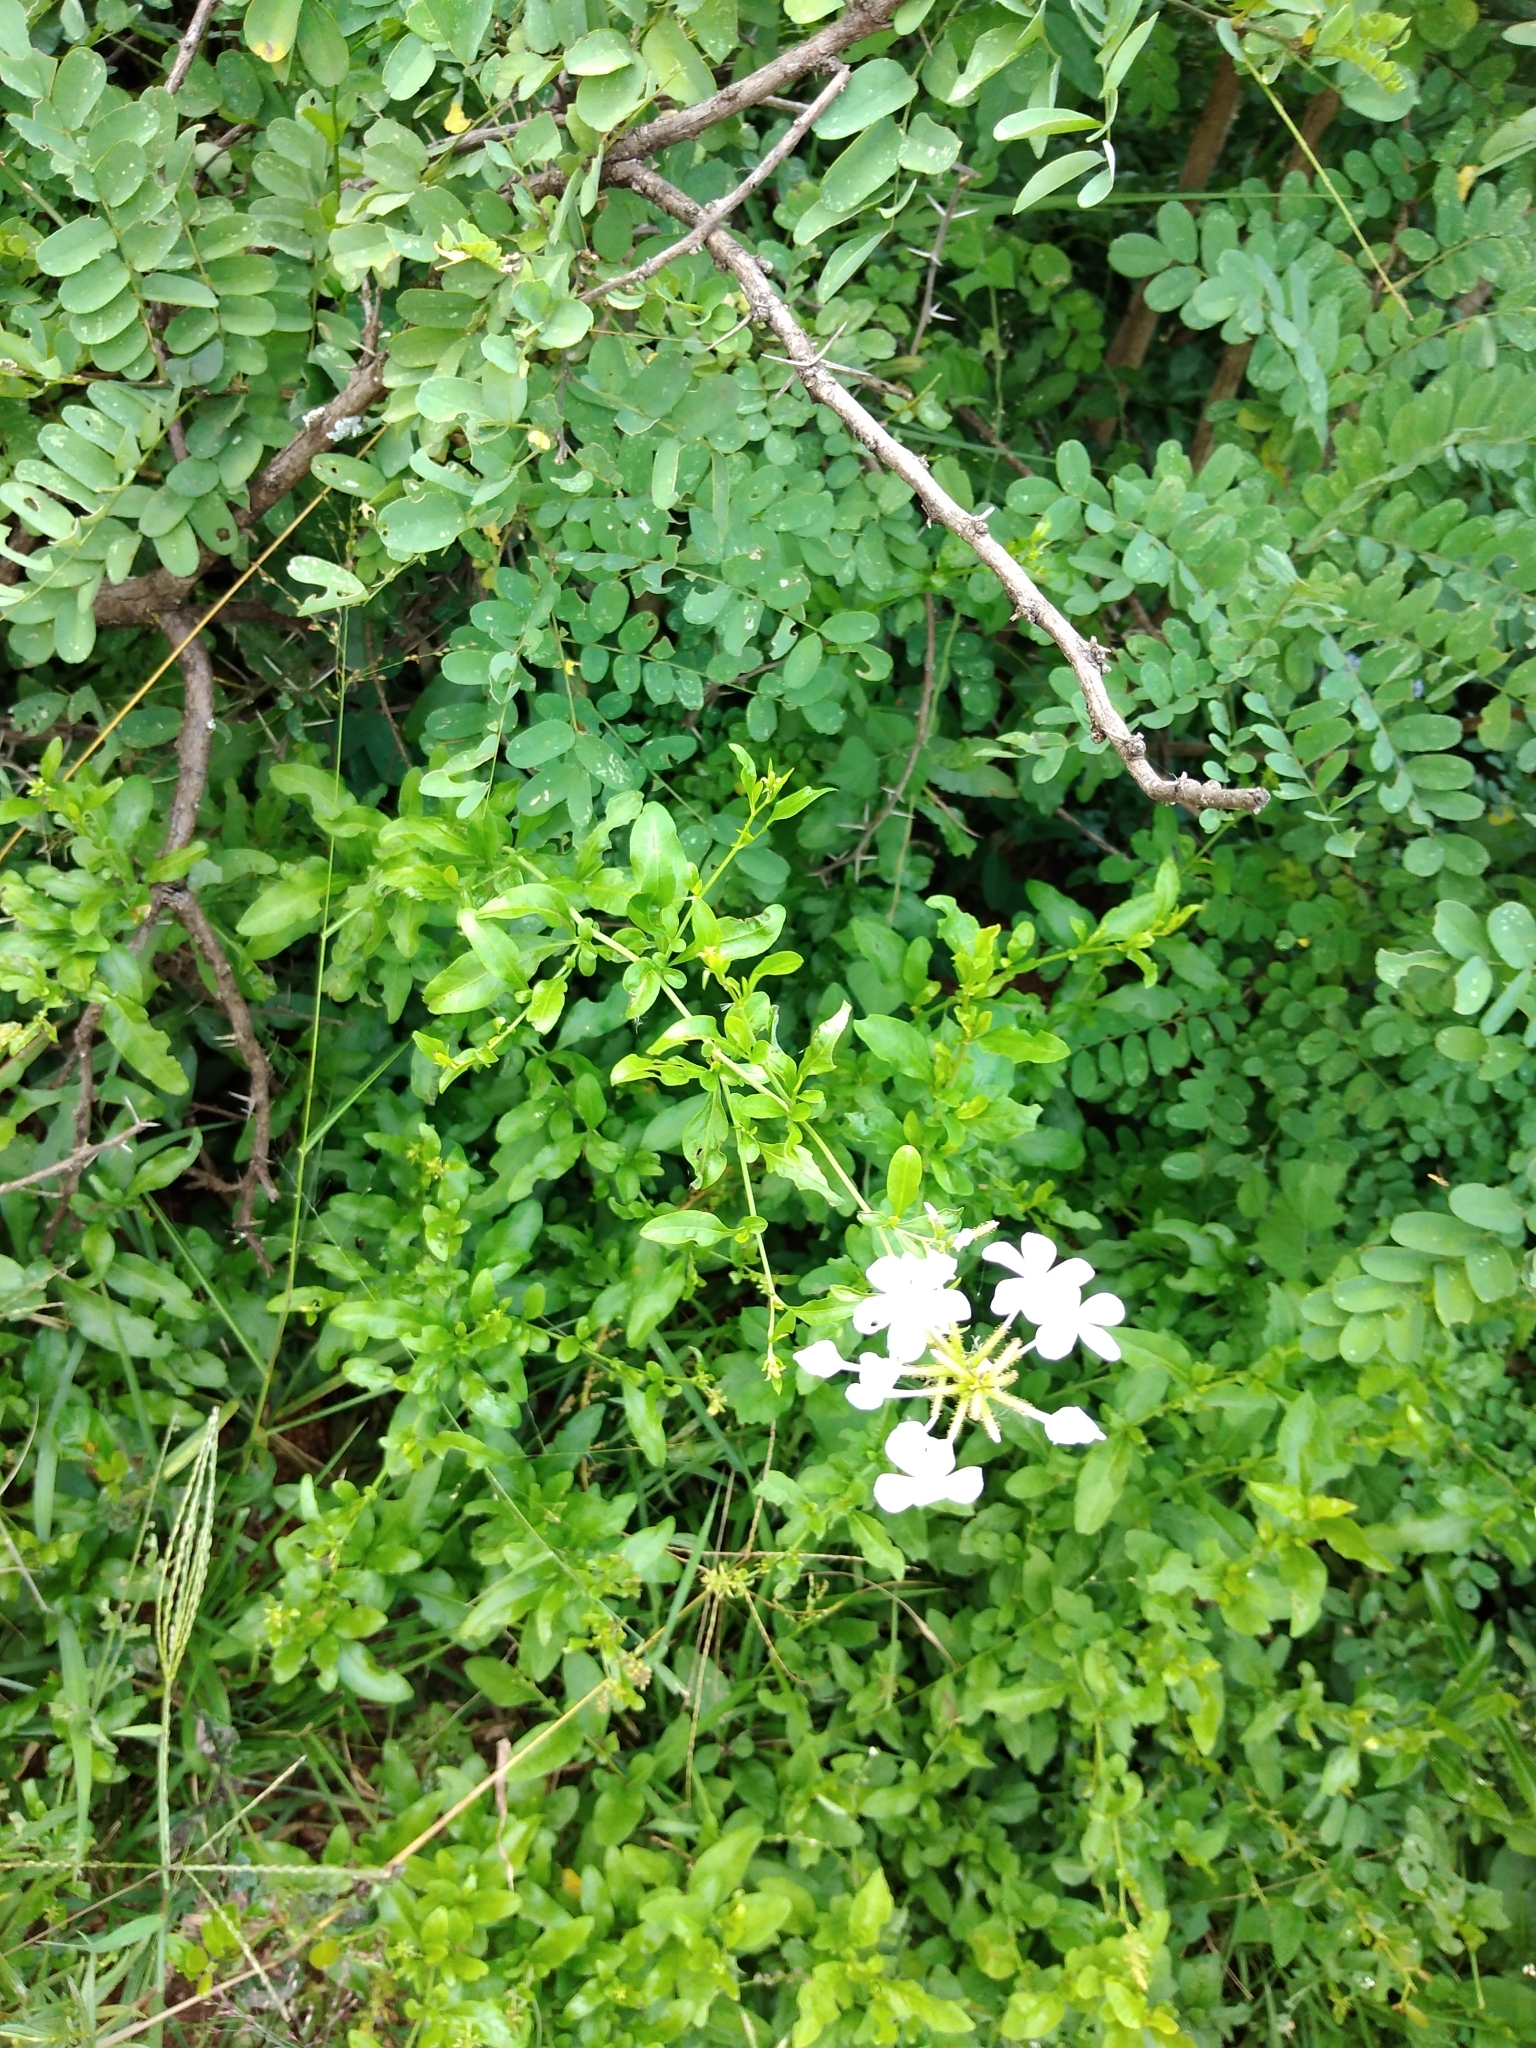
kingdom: Plantae
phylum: Tracheophyta
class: Magnoliopsida
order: Caryophyllales
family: Plumbaginaceae
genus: Plumbago
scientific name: Plumbago auriculata
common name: Cape leadwort
